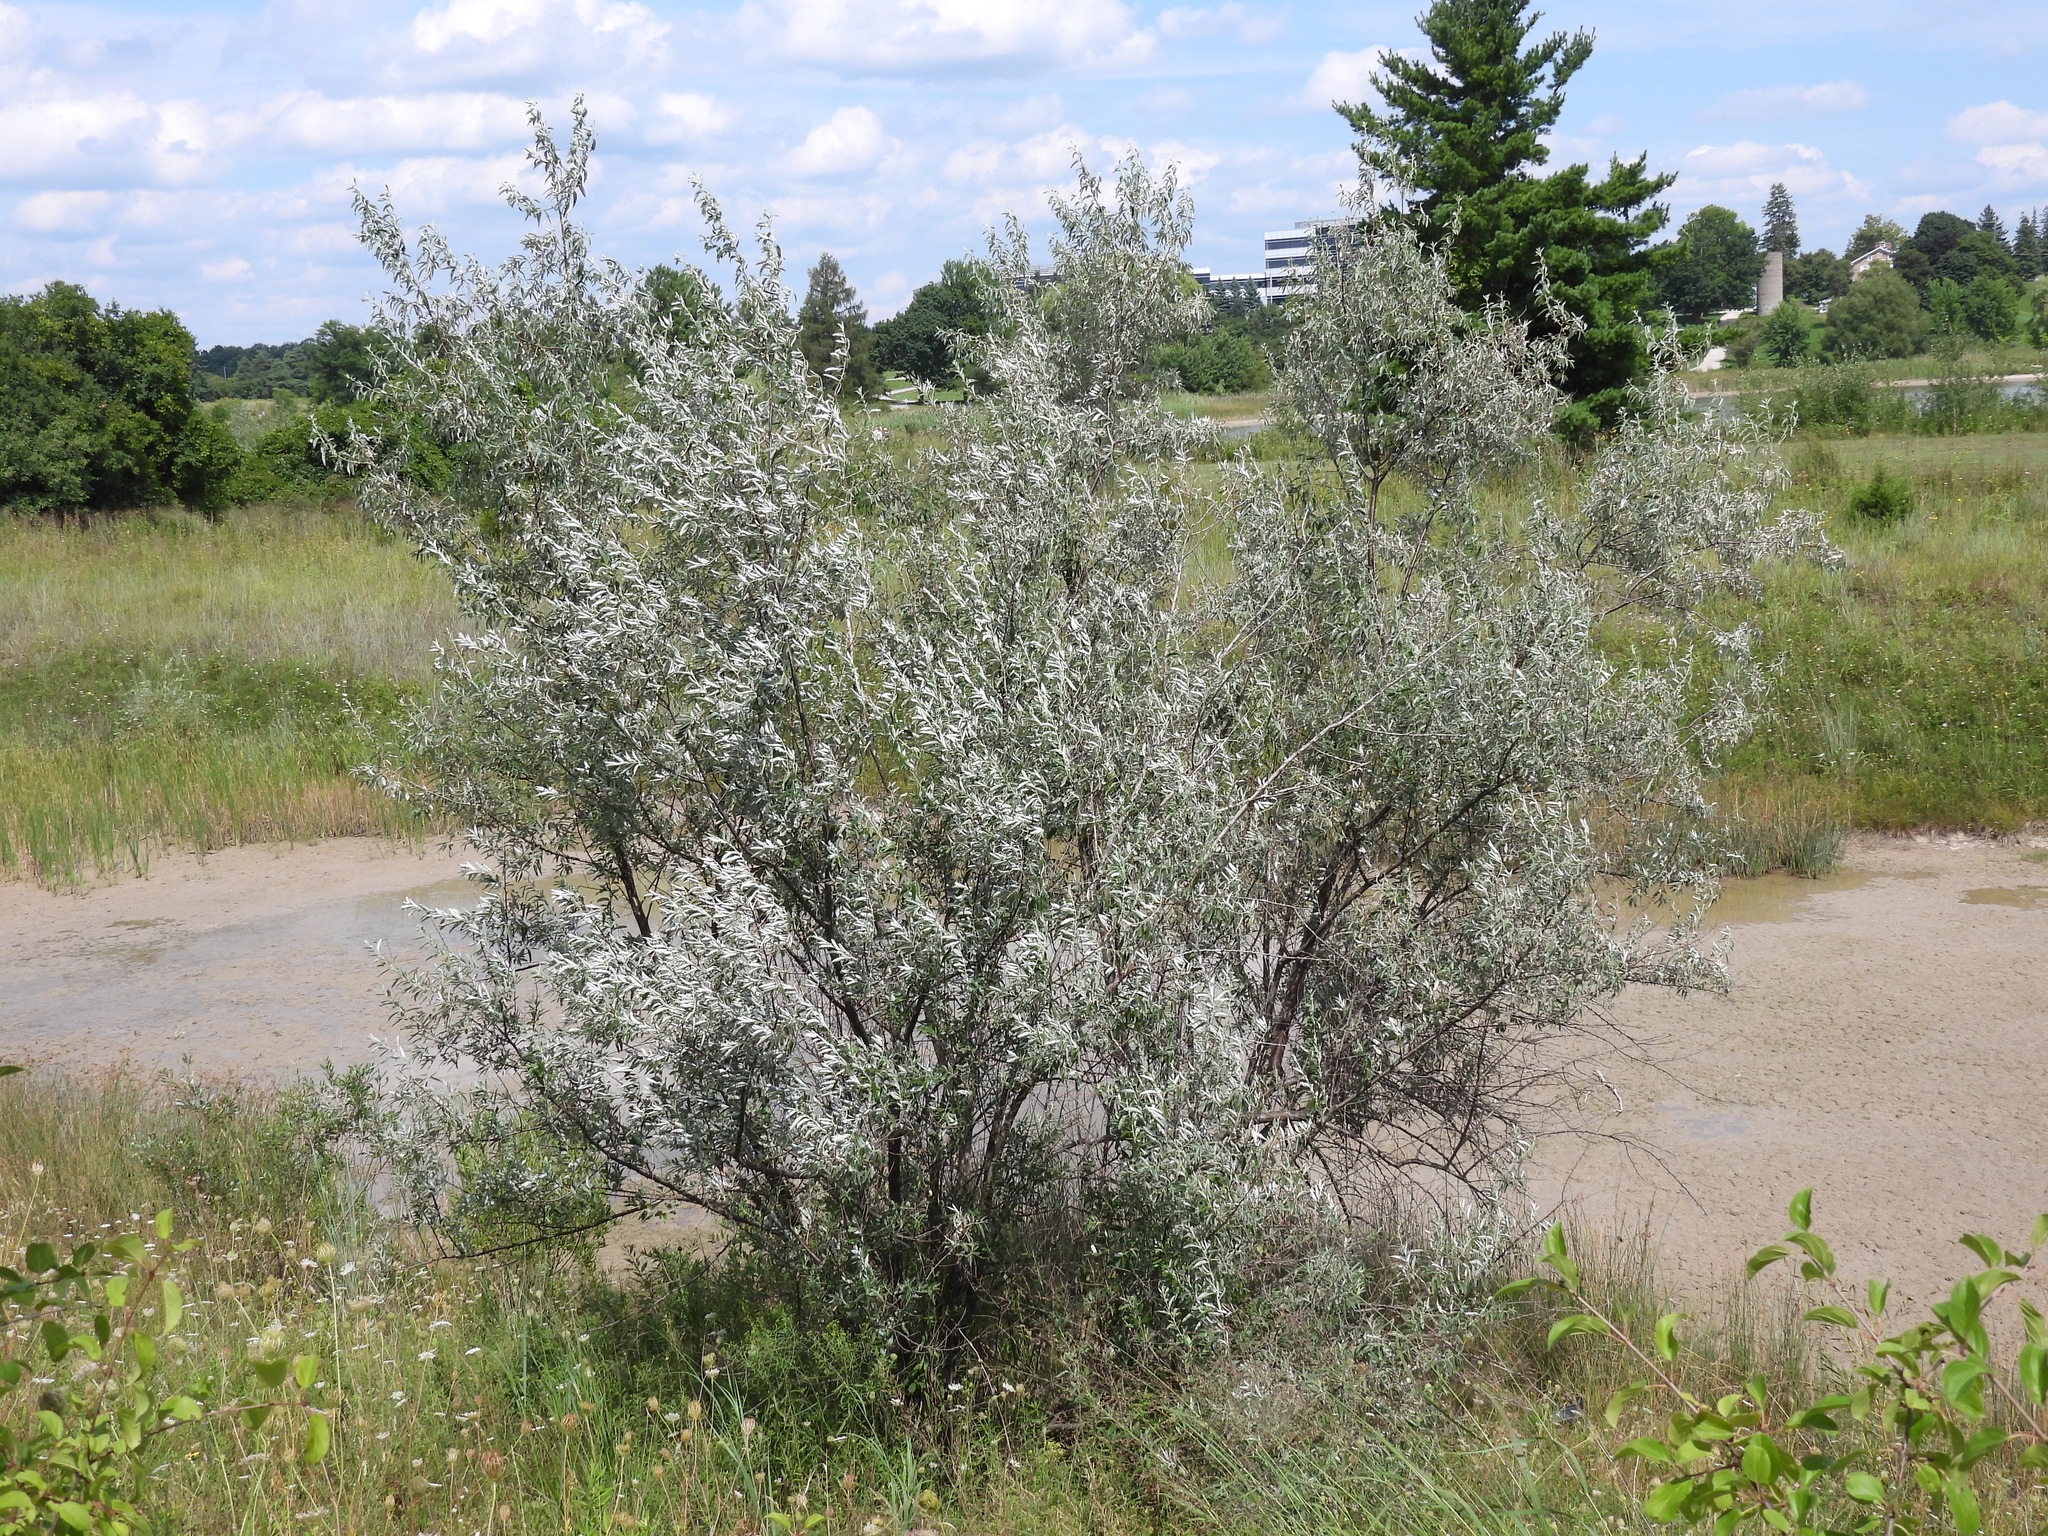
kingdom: Plantae
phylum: Tracheophyta
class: Magnoliopsida
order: Rosales
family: Elaeagnaceae
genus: Elaeagnus
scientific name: Elaeagnus angustifolia
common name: Russian olive
